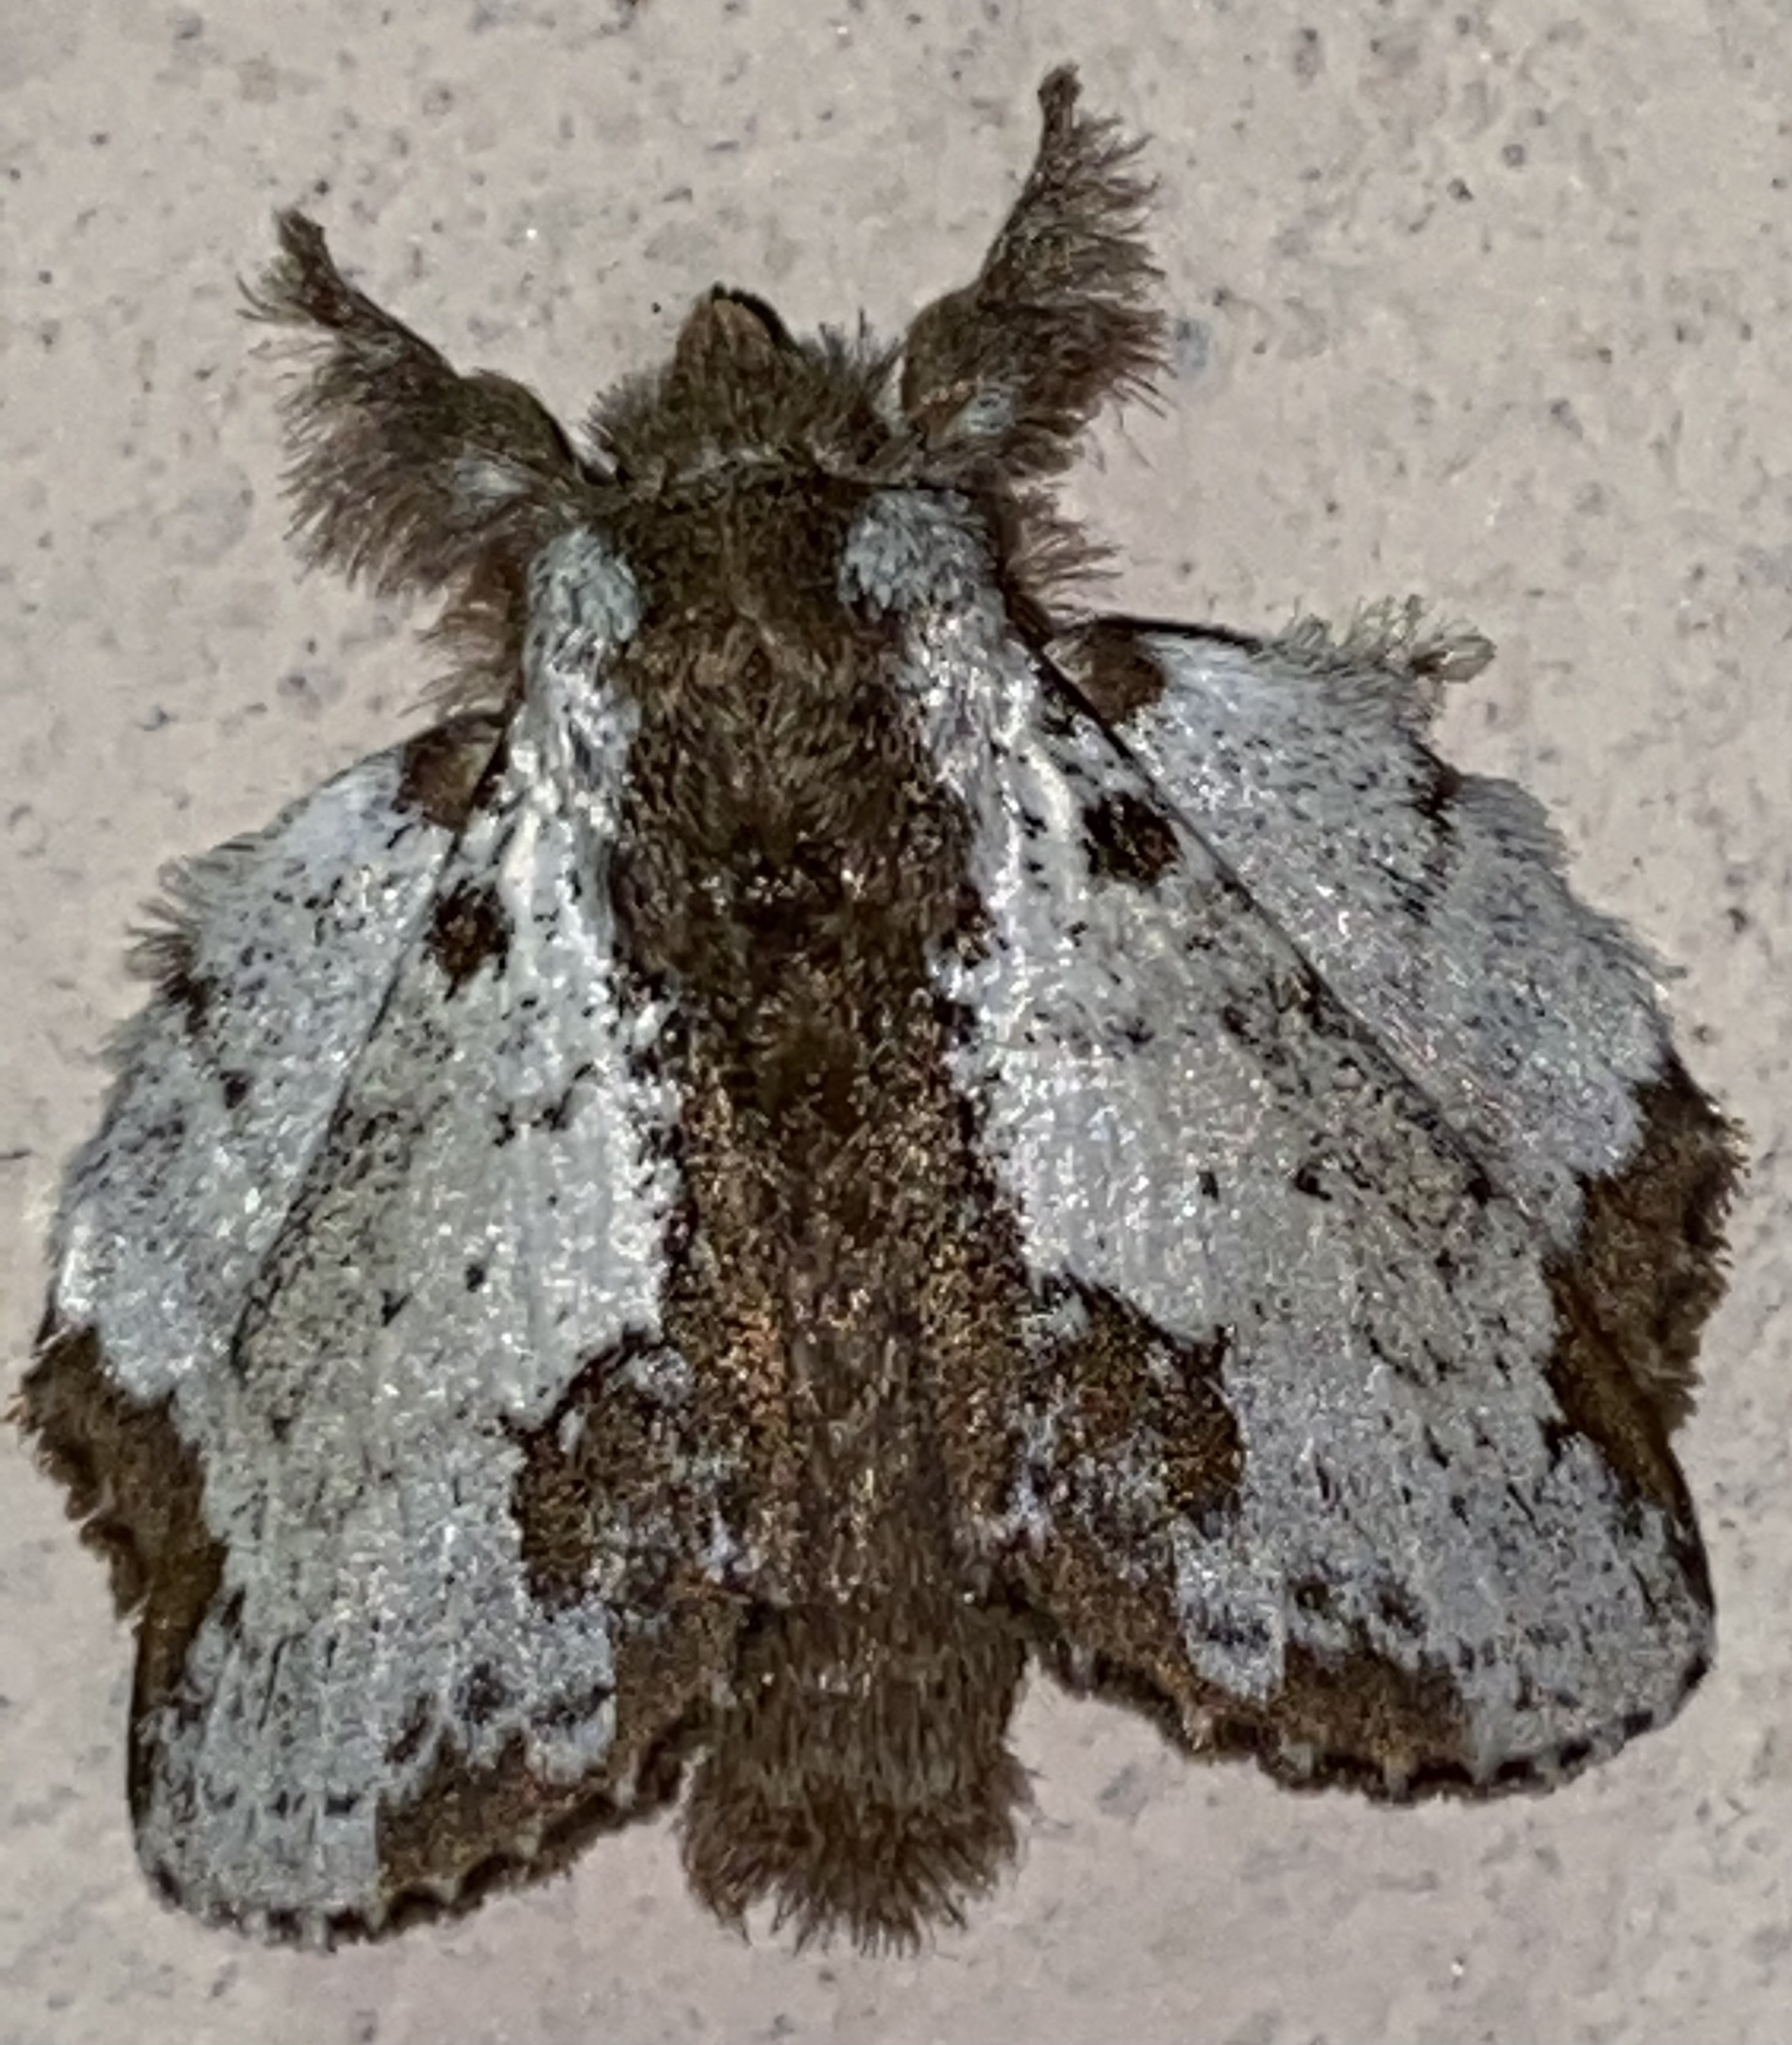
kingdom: Animalia
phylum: Arthropoda
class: Insecta
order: Lepidoptera
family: Lasiocampidae
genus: Euglyphis
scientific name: Euglyphis braganza
